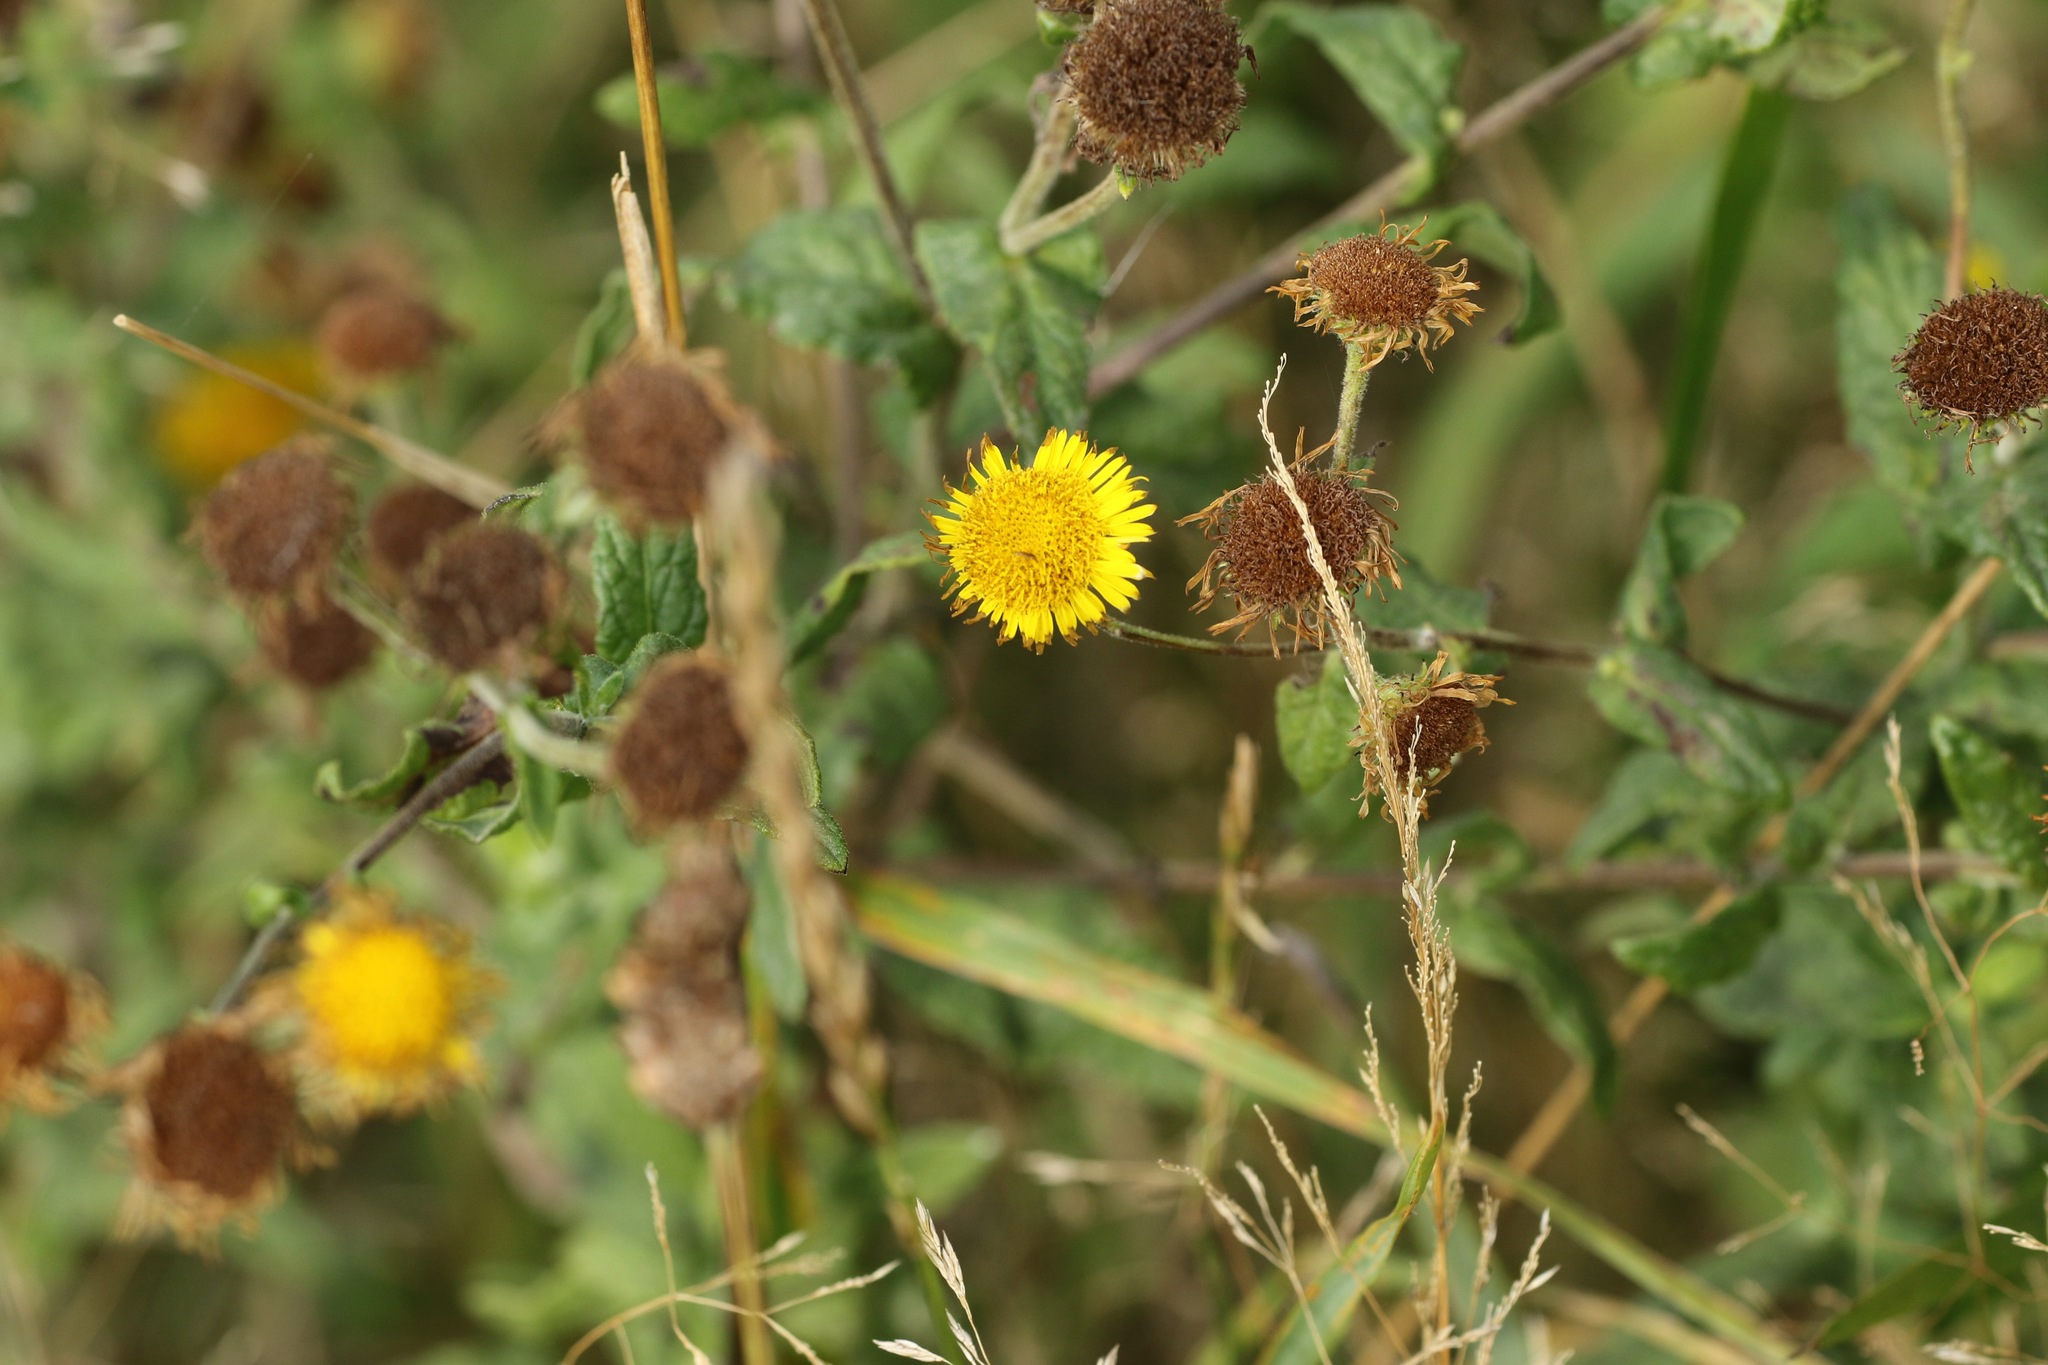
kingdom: Plantae
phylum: Tracheophyta
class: Magnoliopsida
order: Asterales
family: Asteraceae
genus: Pulicaria
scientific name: Pulicaria dysenterica
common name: Common fleabane
